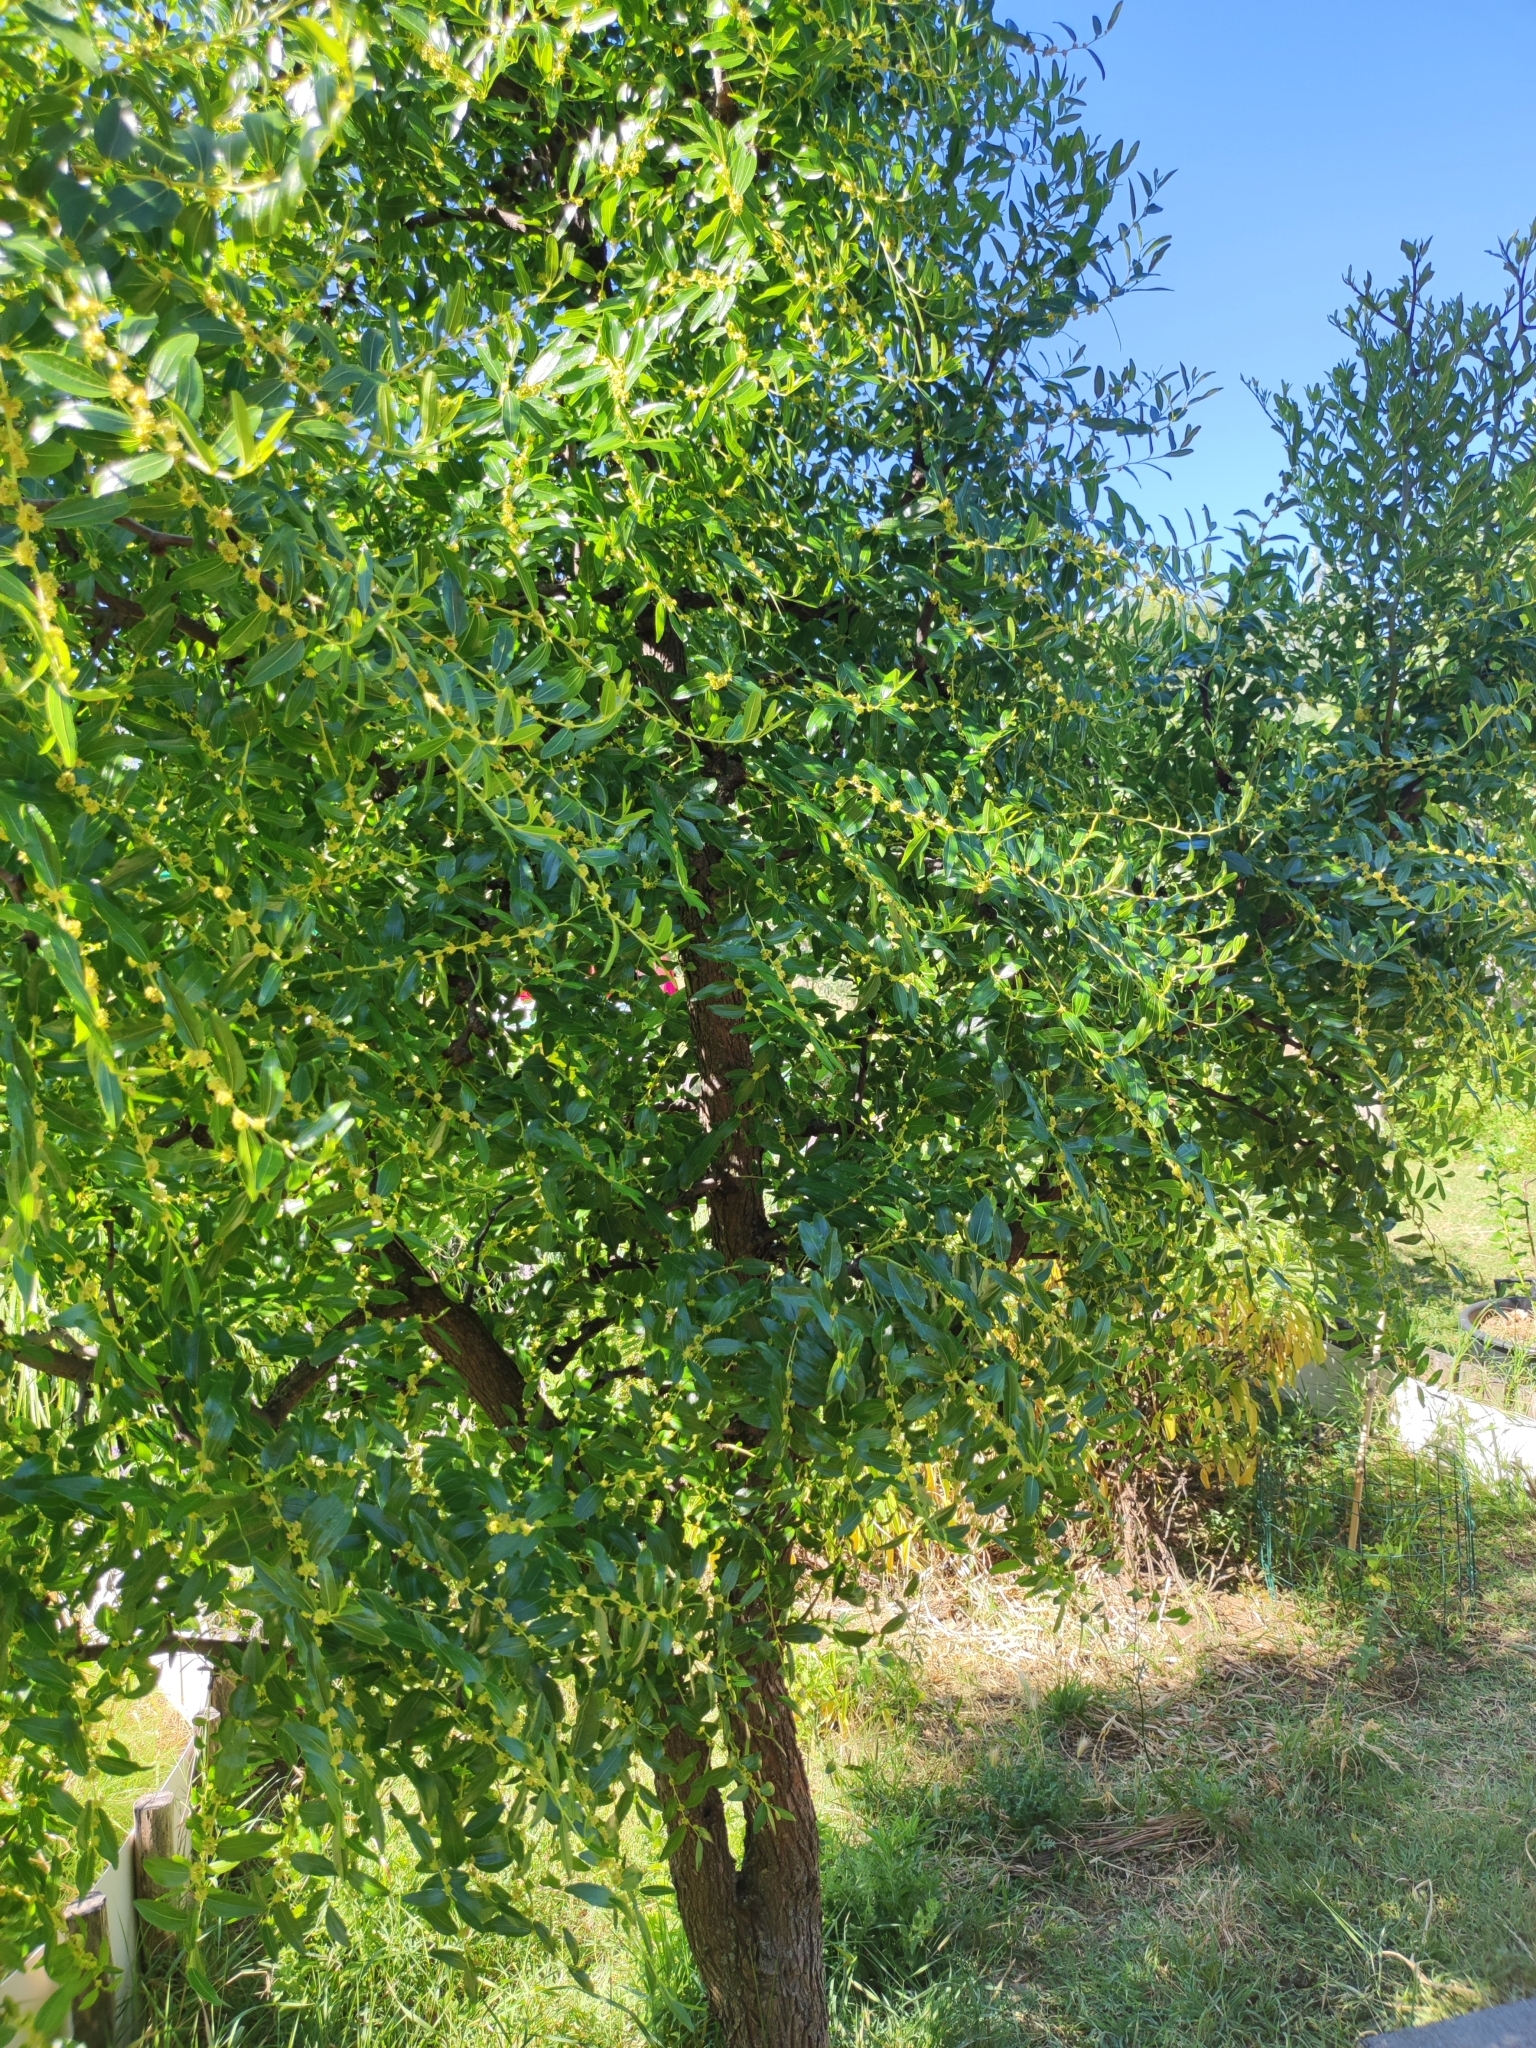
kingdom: Plantae
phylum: Tracheophyta
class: Magnoliopsida
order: Rosales
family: Rhamnaceae
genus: Ziziphus
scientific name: Ziziphus jujuba
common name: Jujube red date
